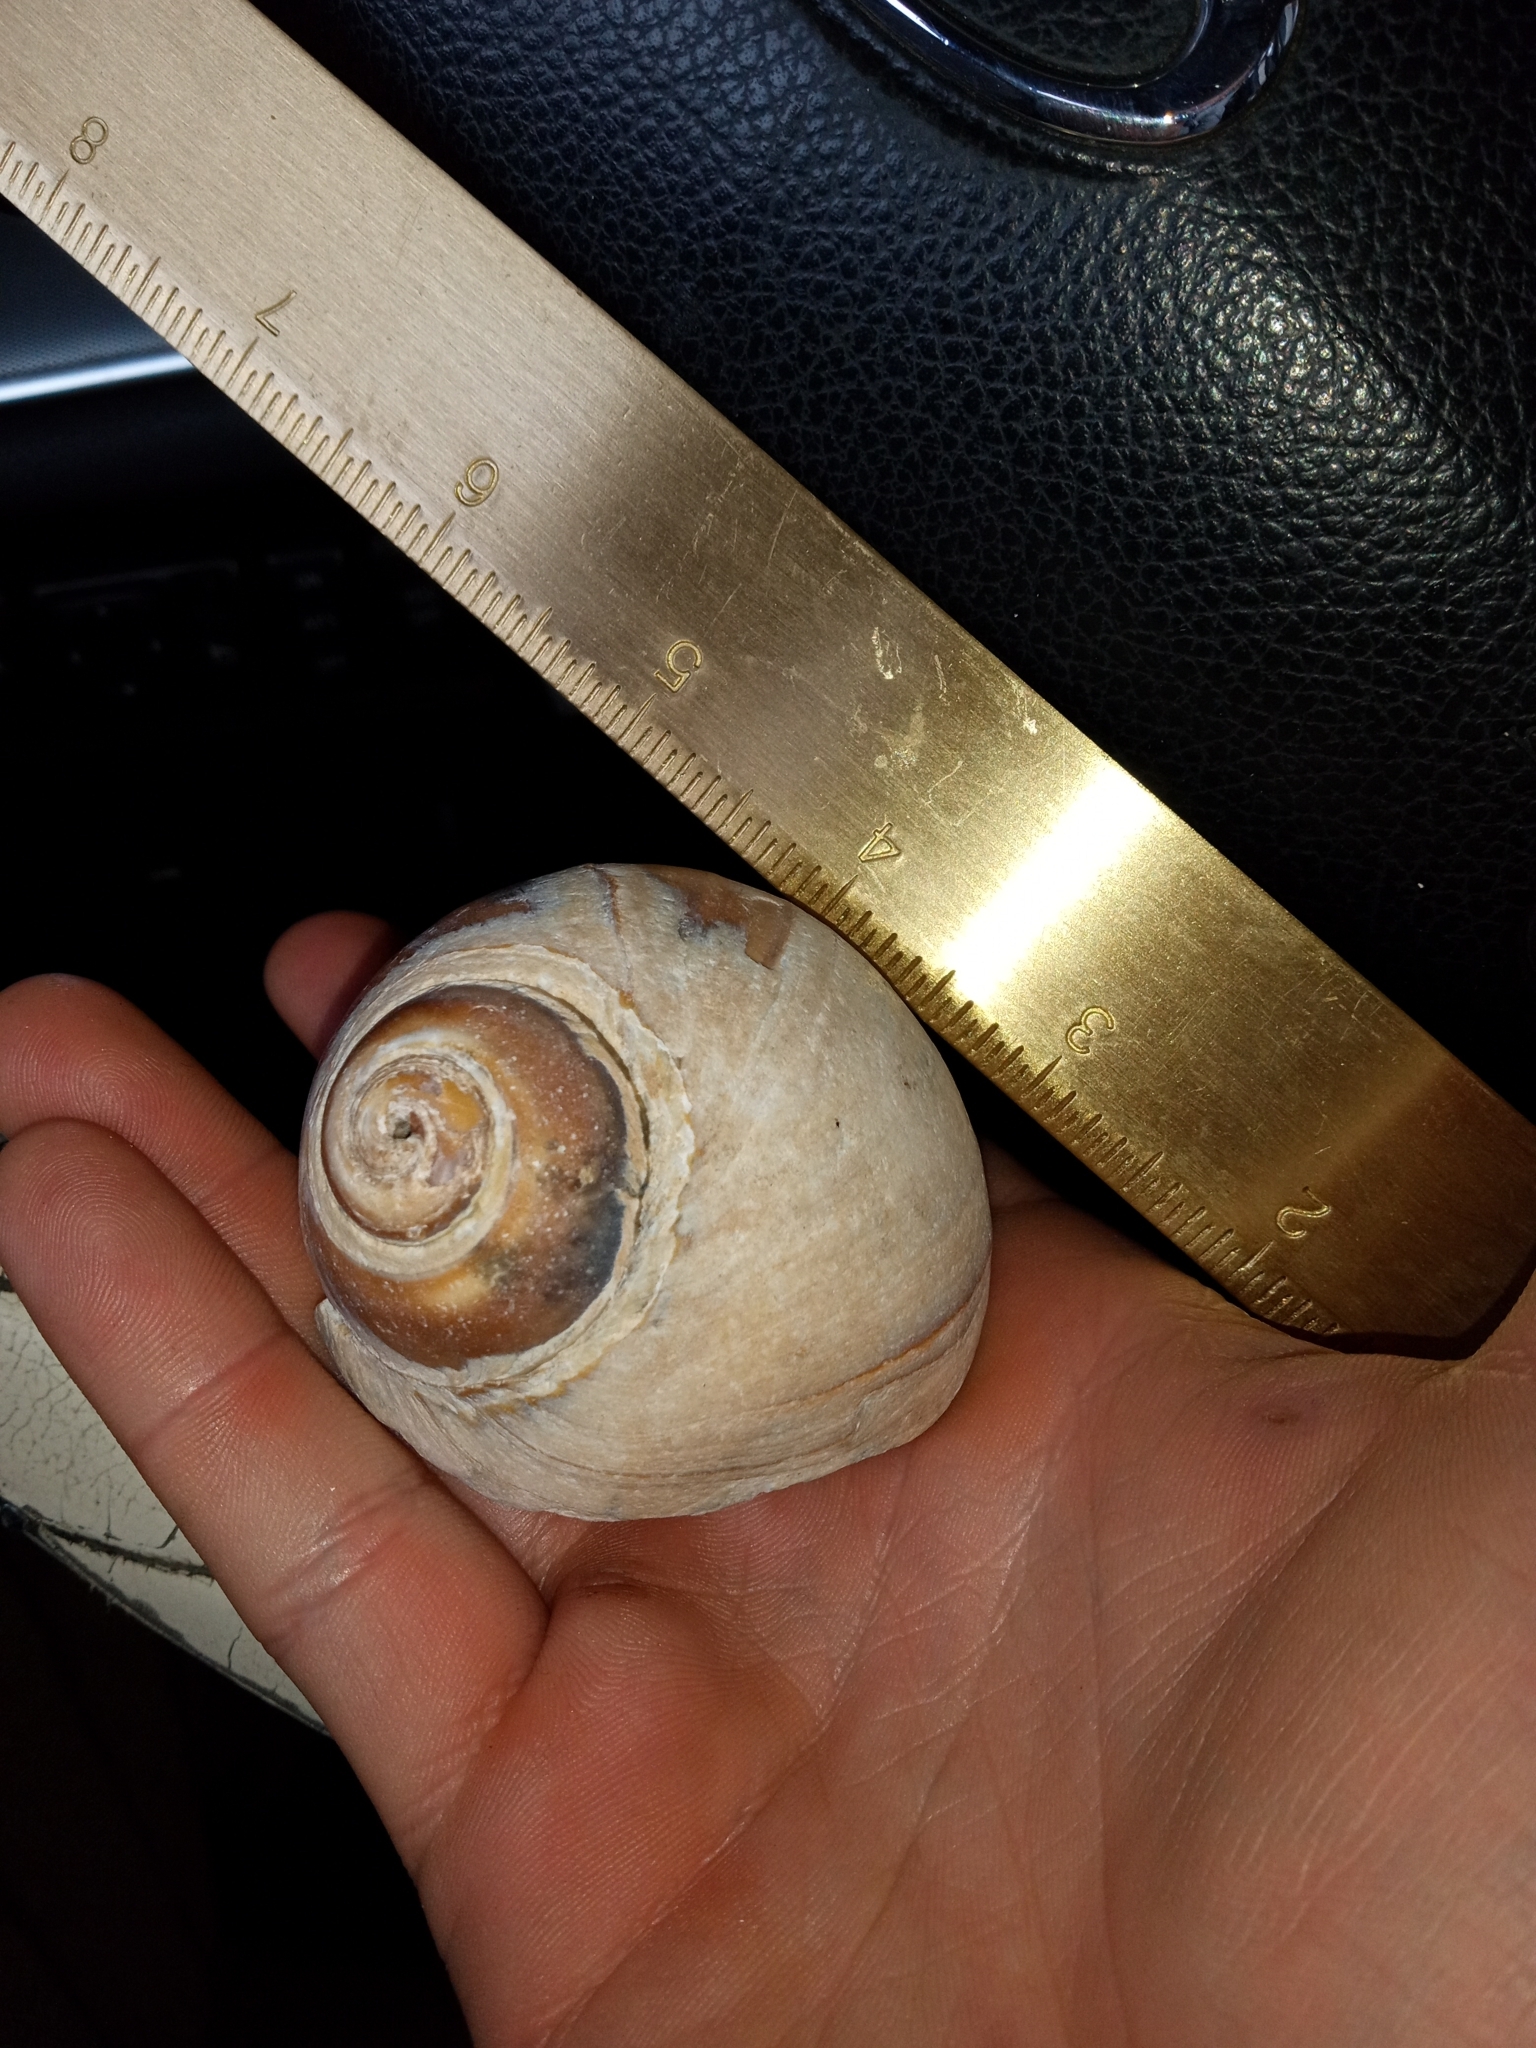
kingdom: Animalia
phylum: Mollusca
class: Gastropoda
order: Littorinimorpha
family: Naticidae
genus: Neverita
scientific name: Neverita lewisii
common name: Lewis' moonsnail
